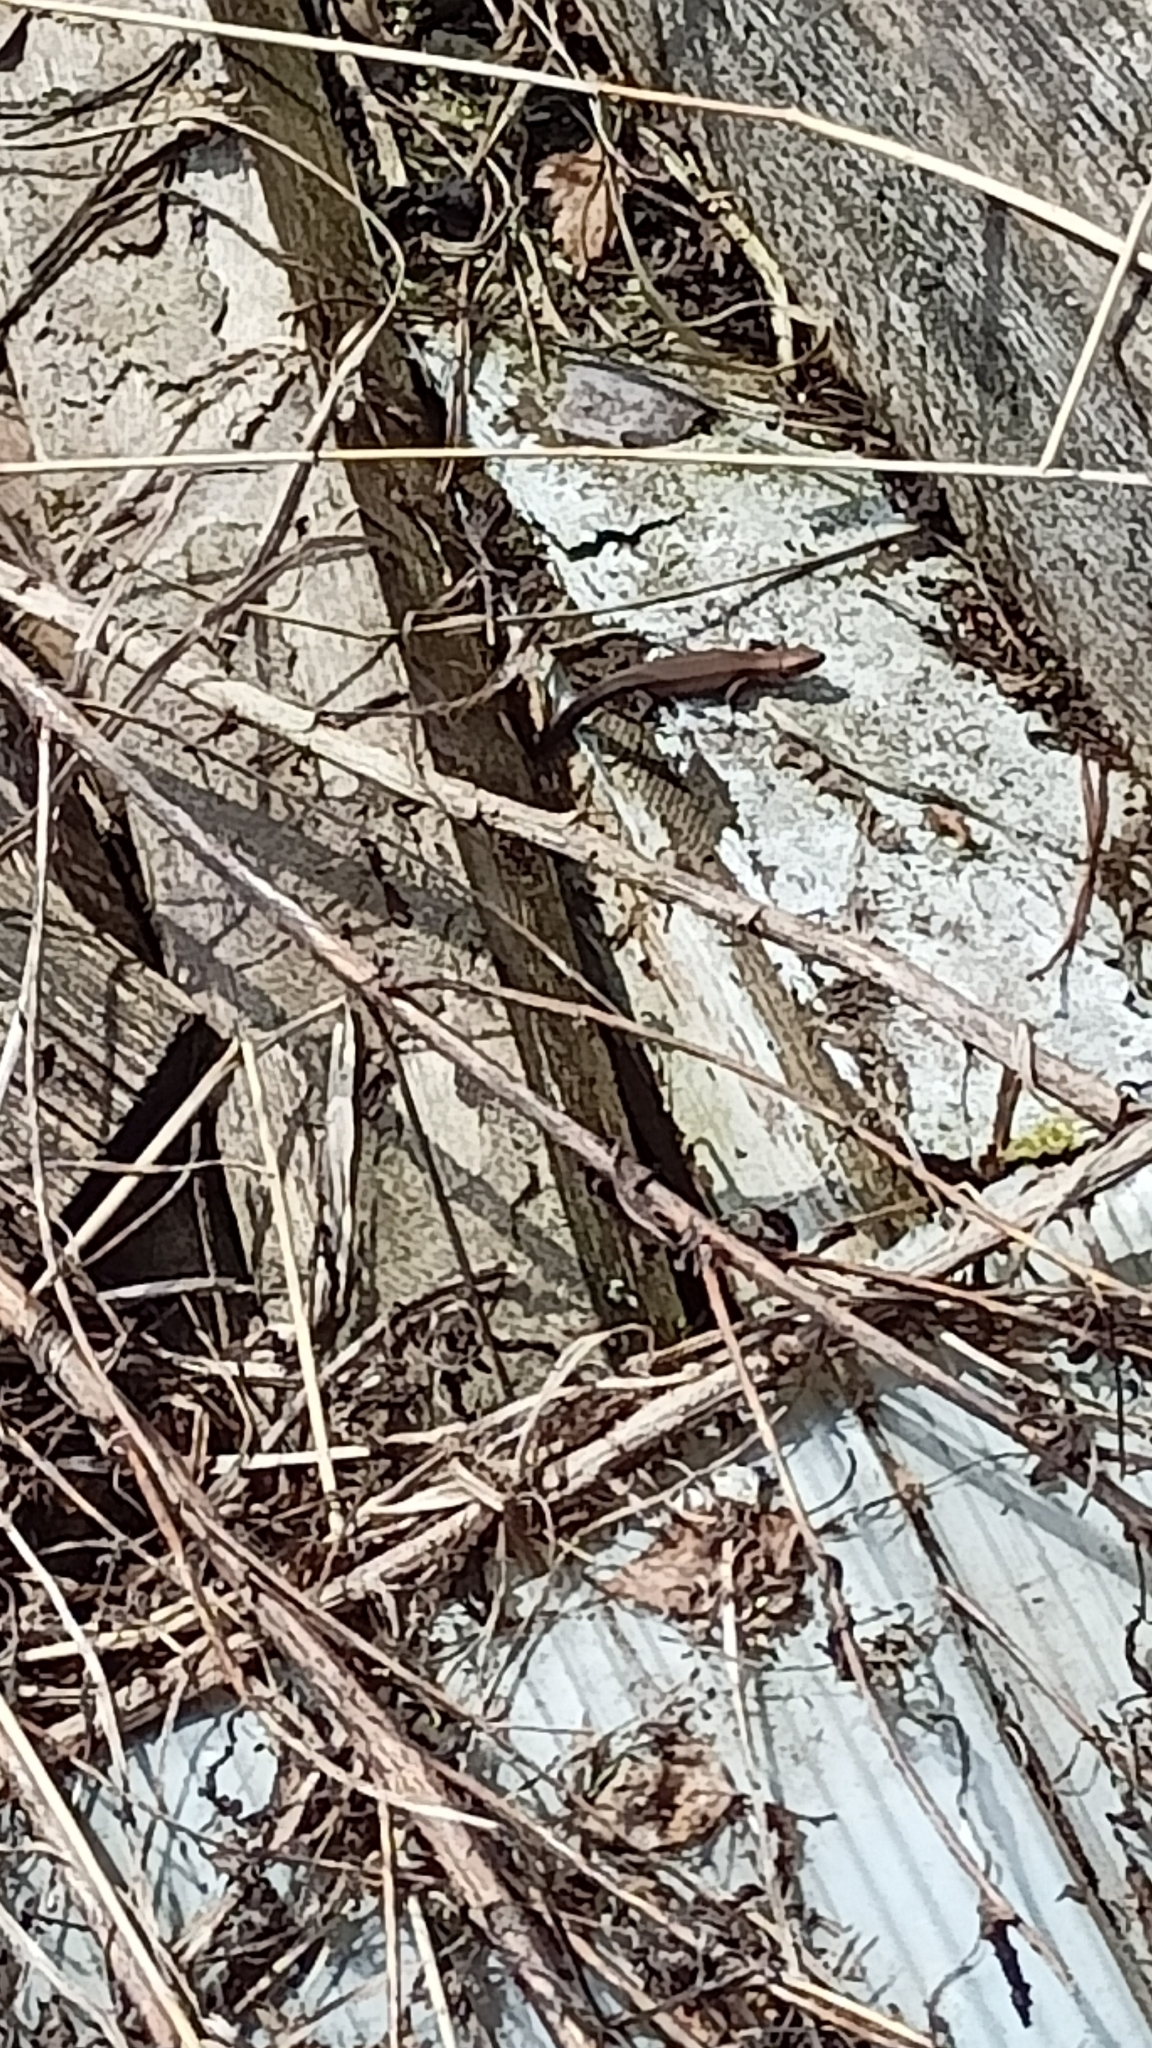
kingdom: Animalia
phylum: Chordata
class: Squamata
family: Lacertidae
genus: Zootoca
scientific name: Zootoca vivipara
